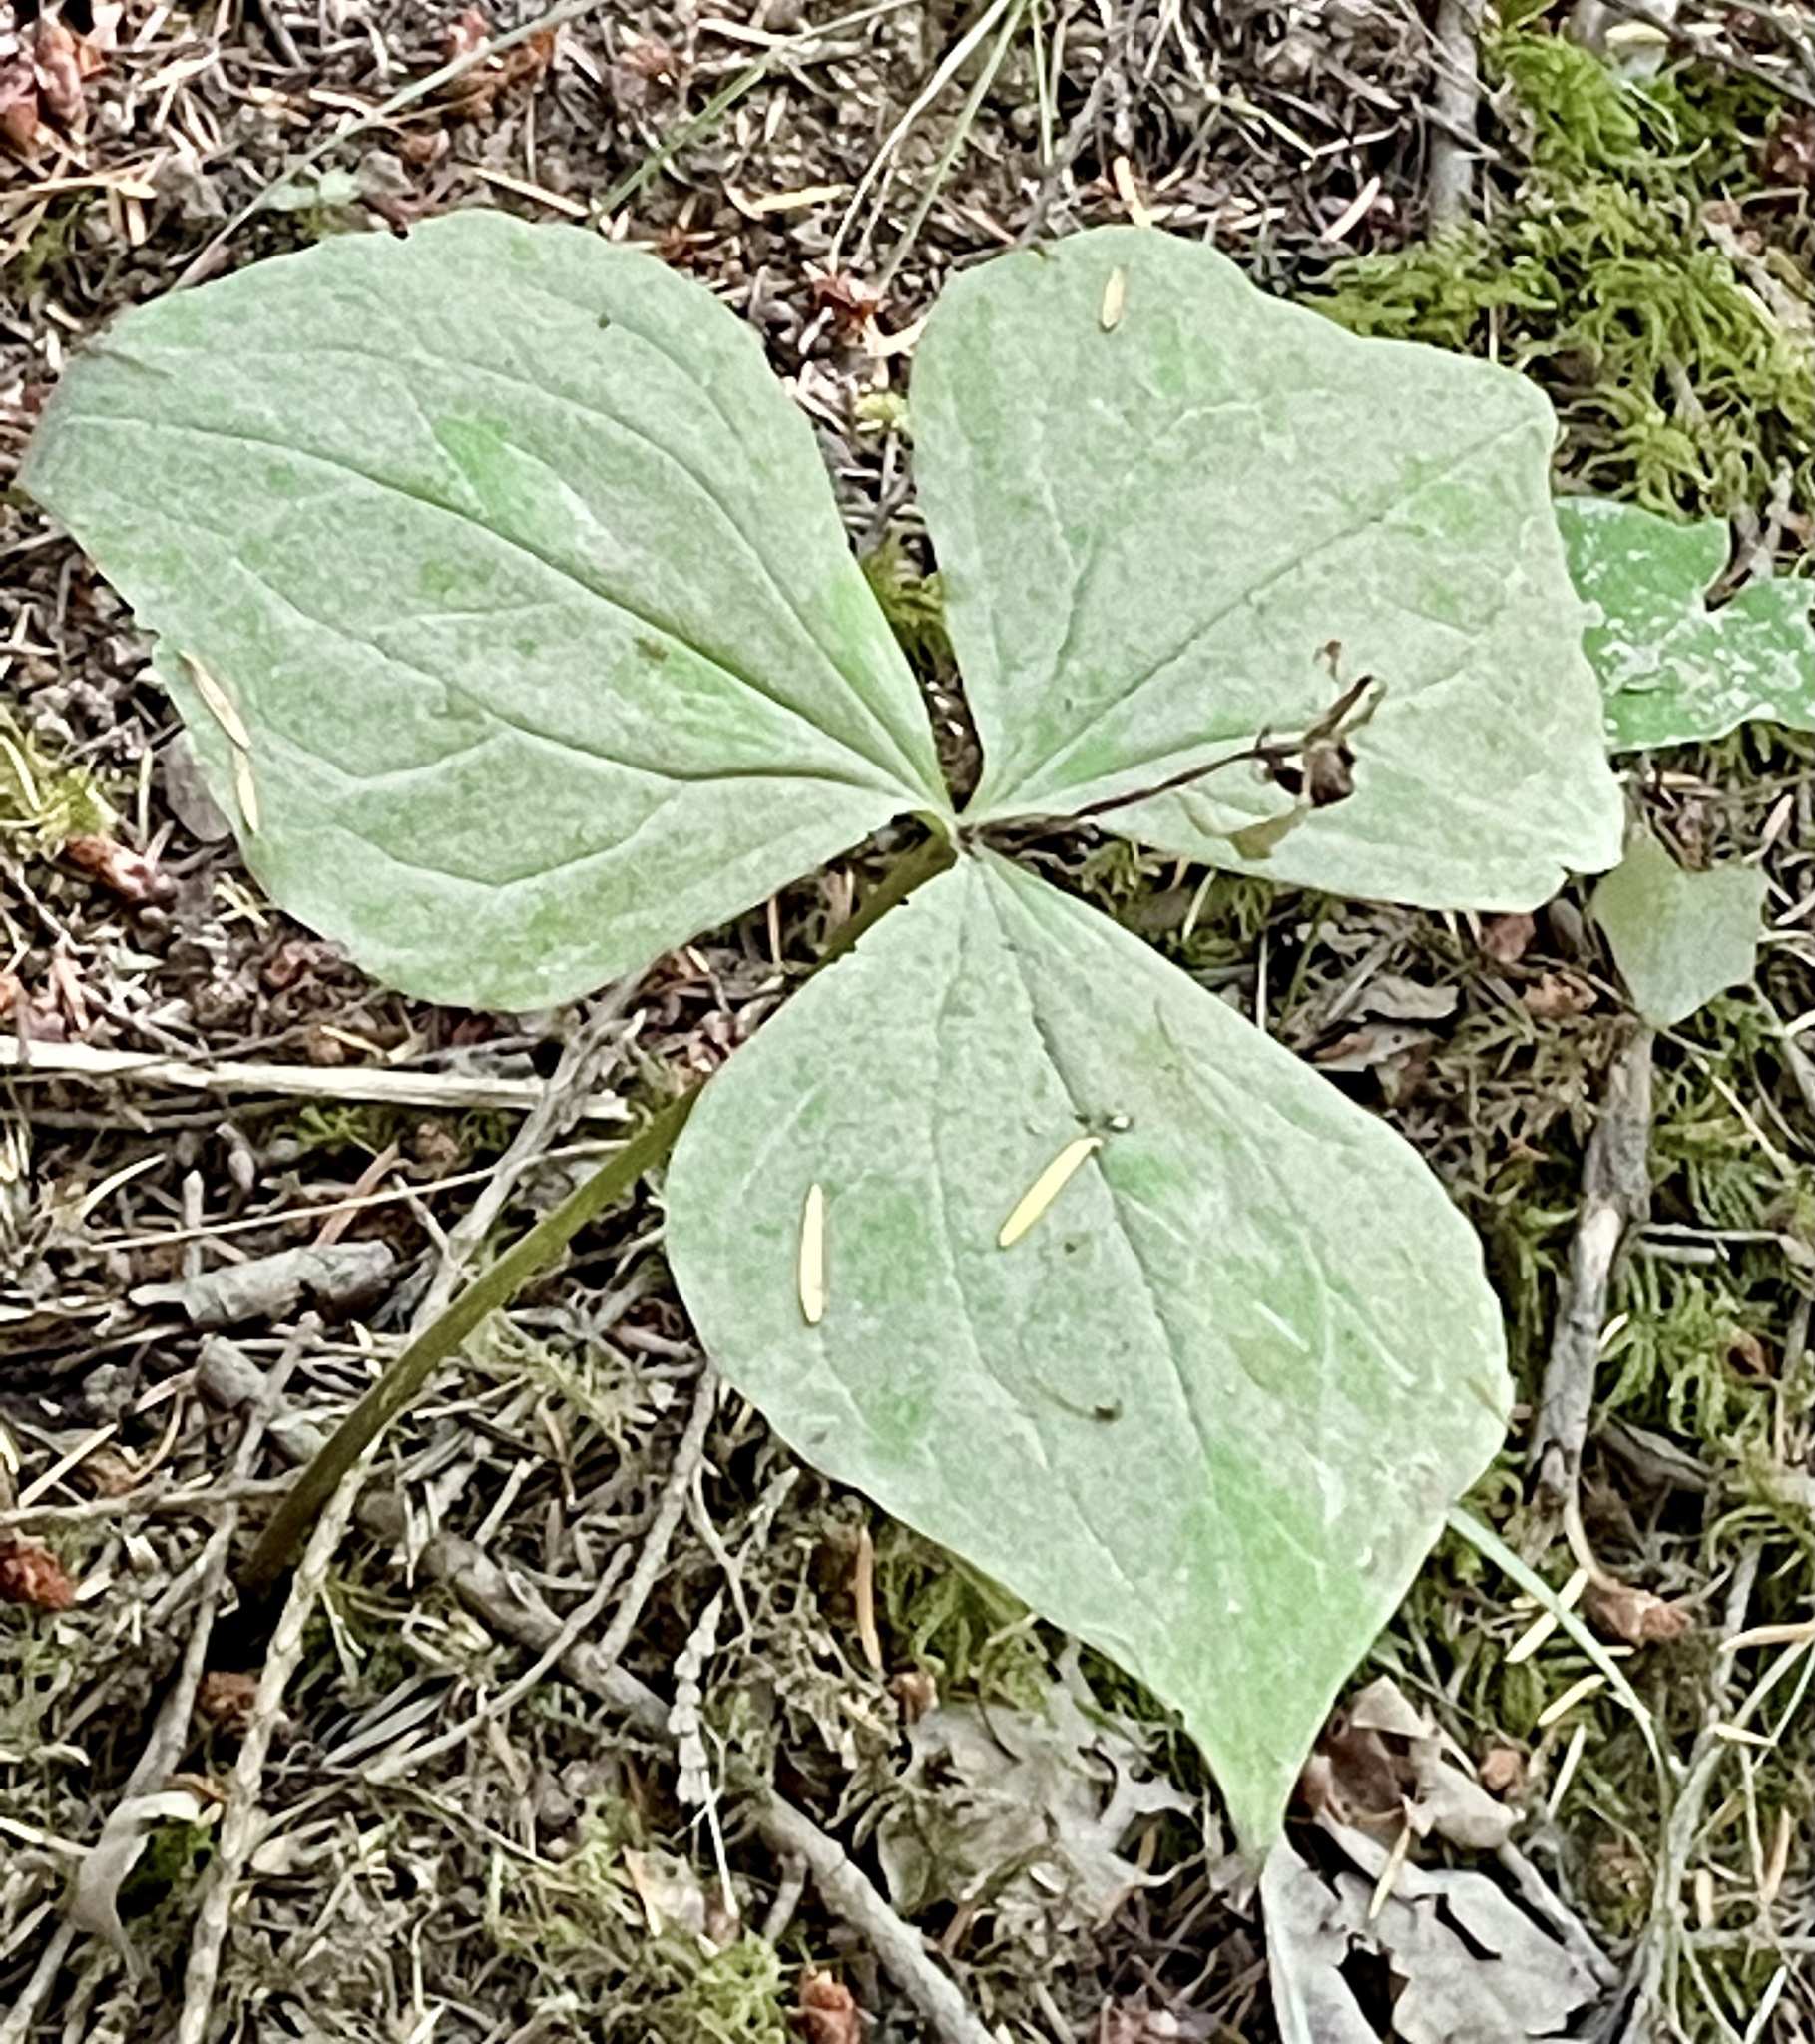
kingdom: Plantae
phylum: Tracheophyta
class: Liliopsida
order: Liliales
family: Melanthiaceae
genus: Trillium
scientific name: Trillium ovatum
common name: Pacific trillium
